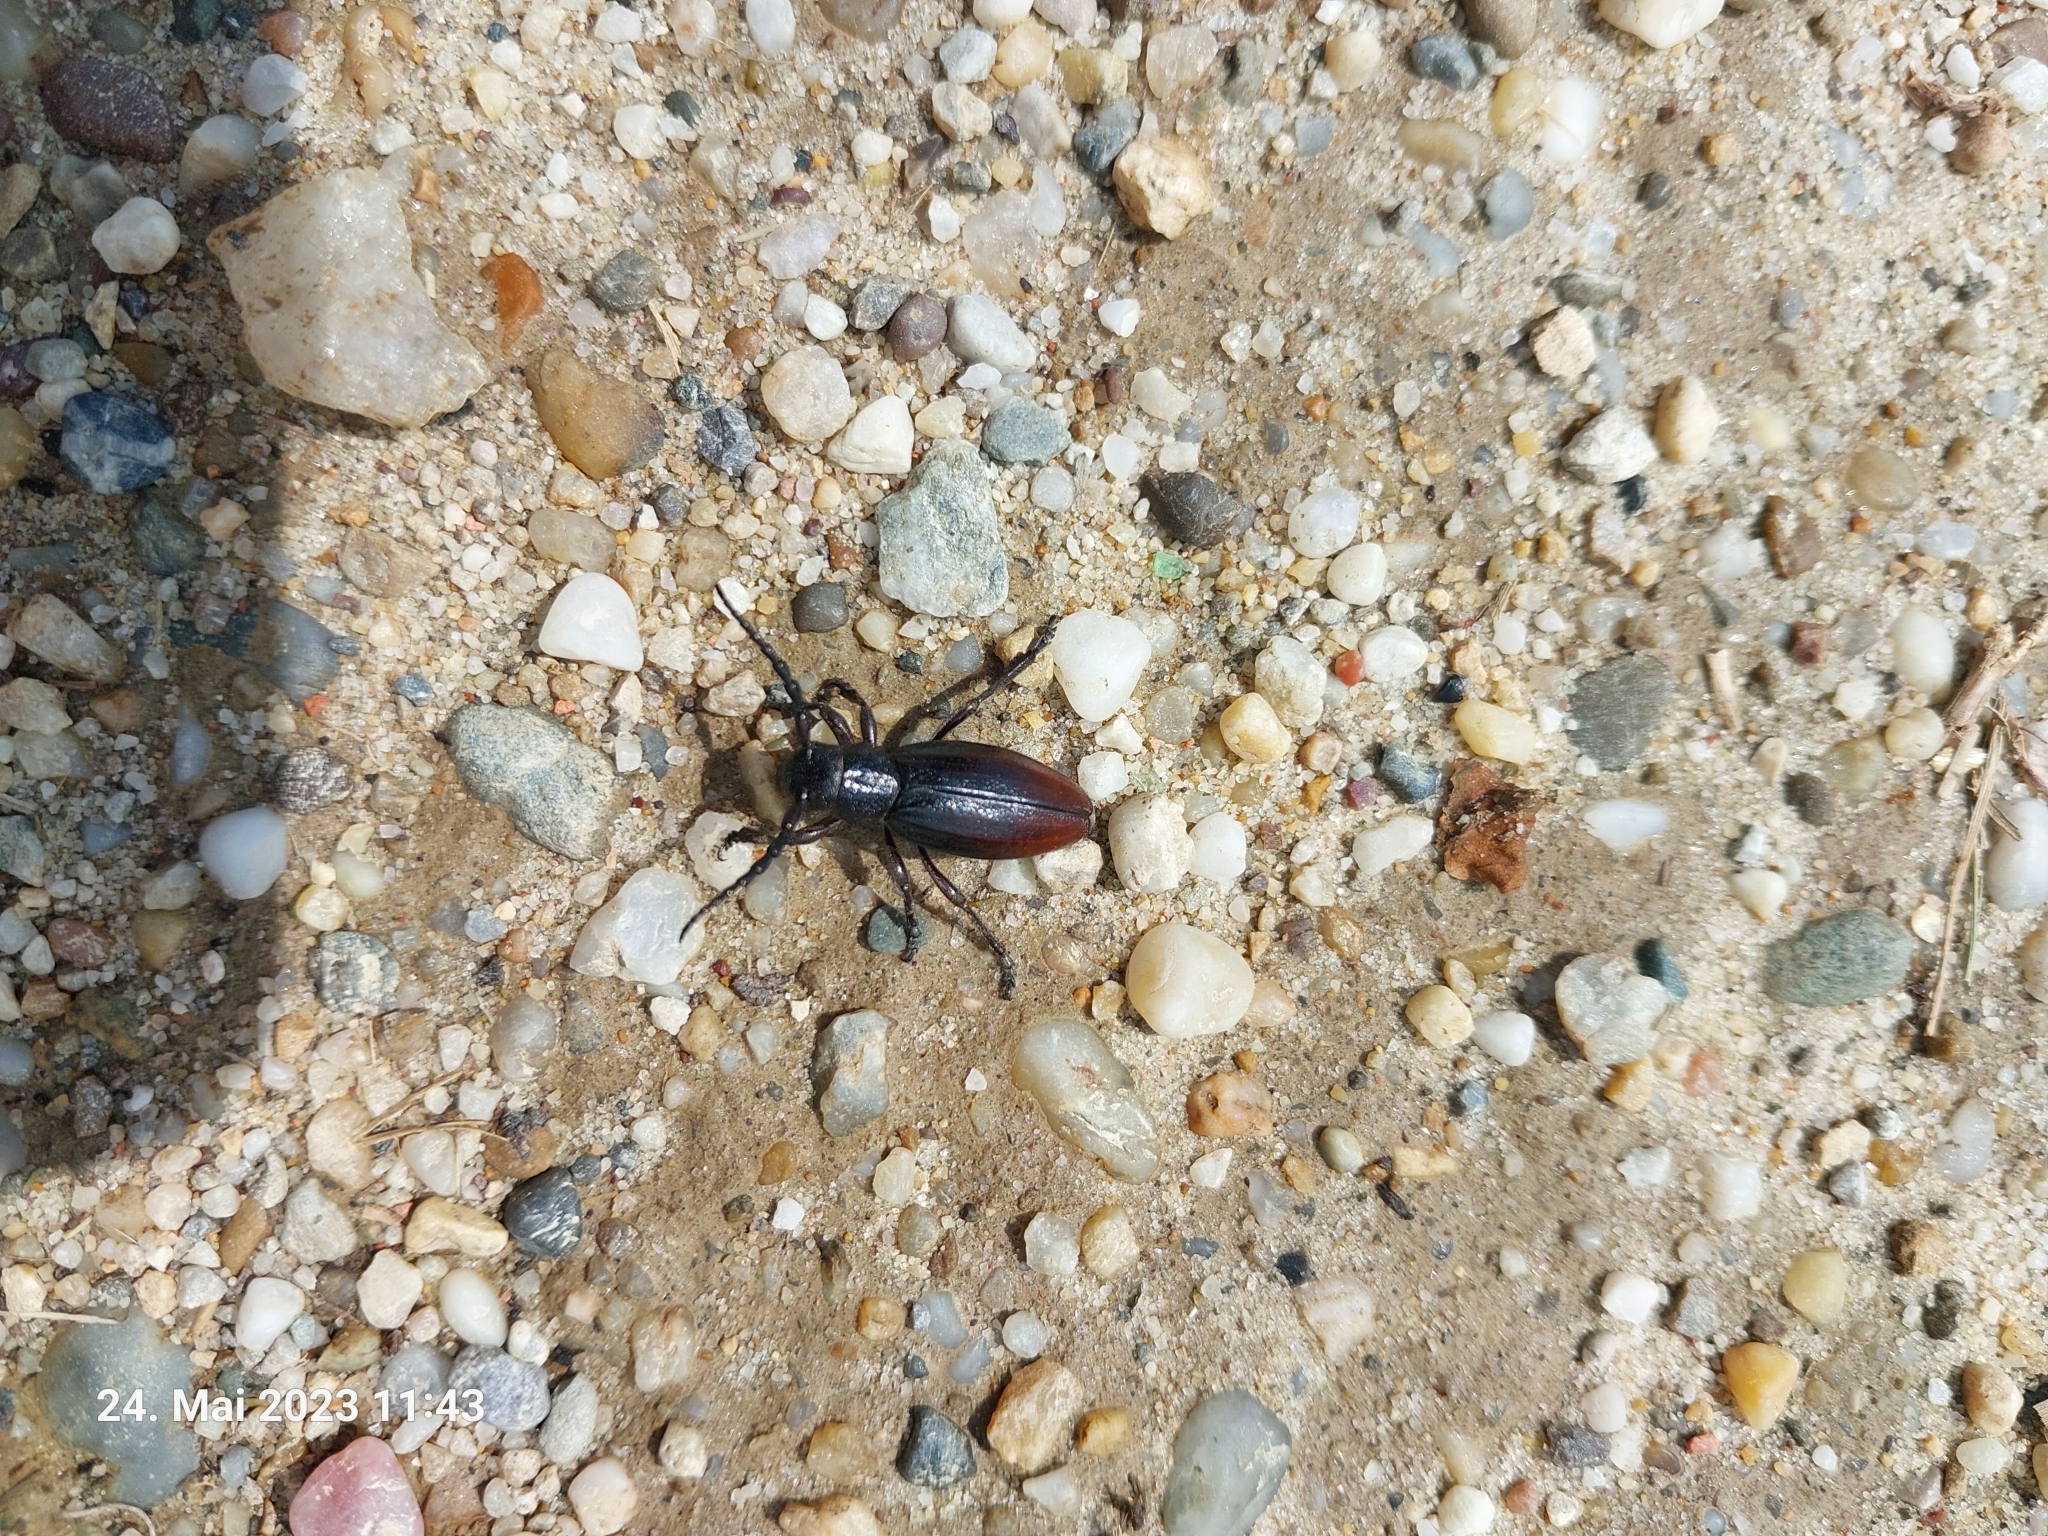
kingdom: Animalia
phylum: Arthropoda
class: Insecta
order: Coleoptera
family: Cerambycidae
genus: Dorcadion
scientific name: Dorcadion fulvum
